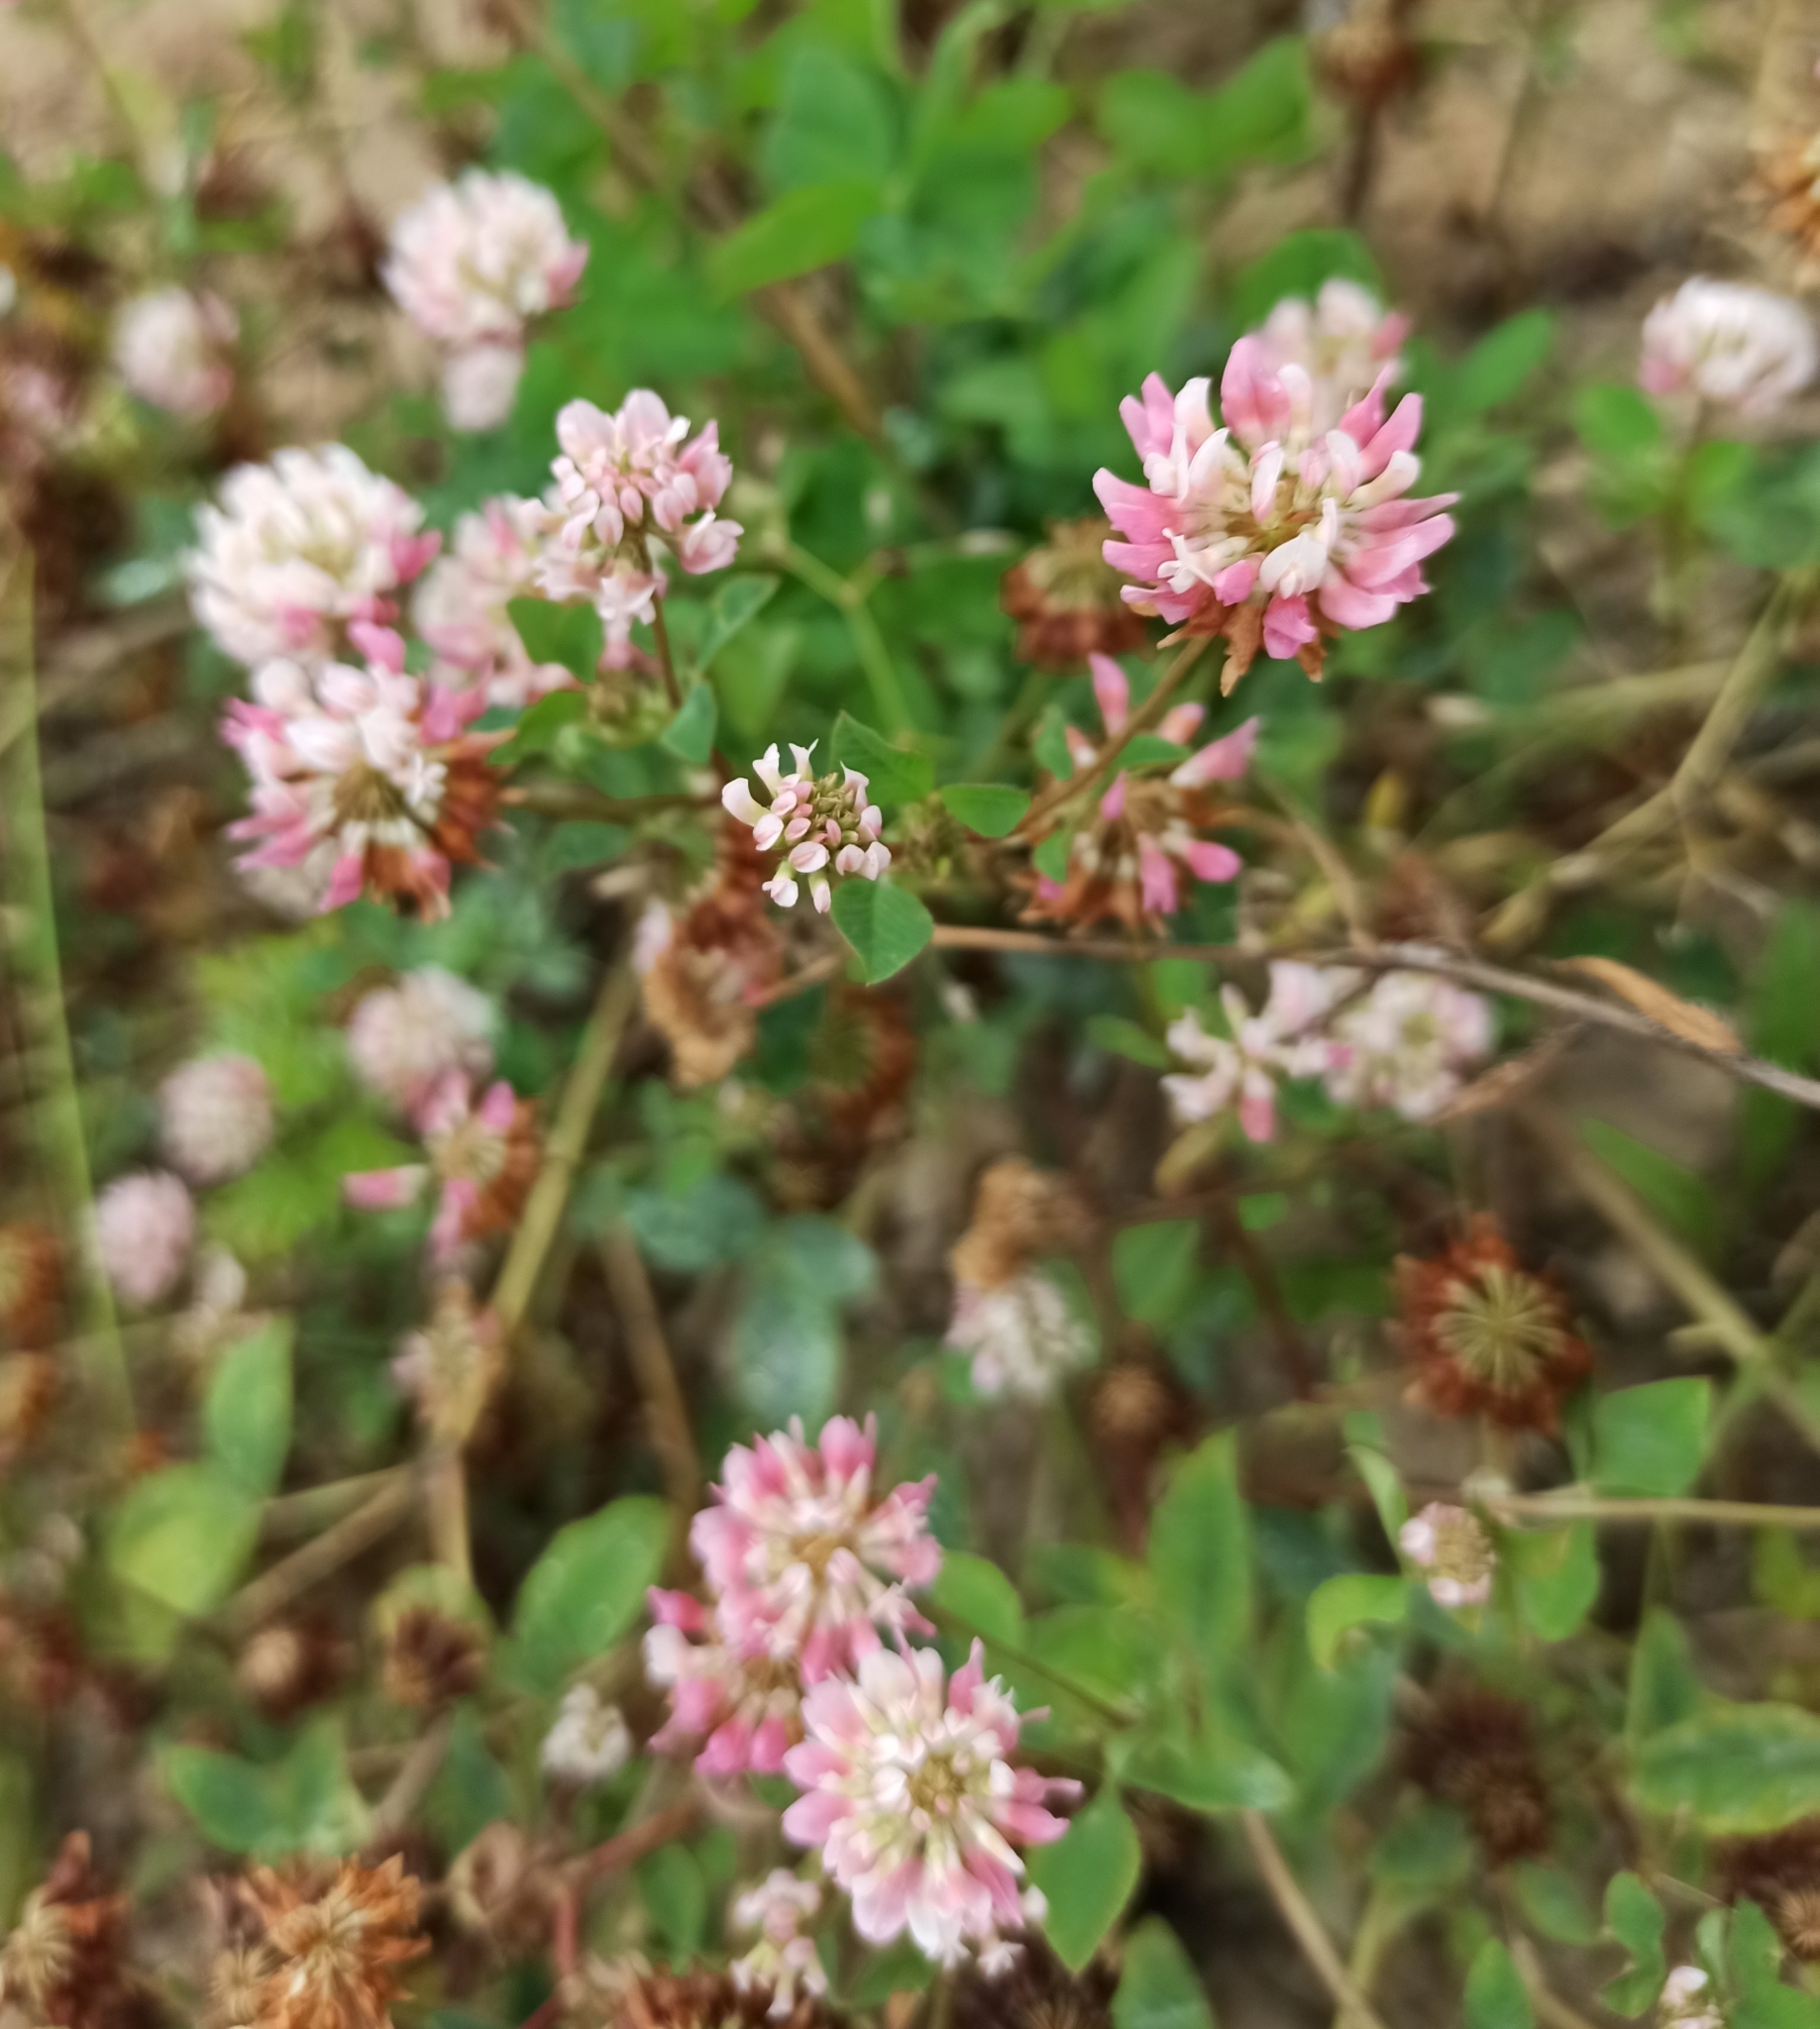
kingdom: Plantae
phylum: Tracheophyta
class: Magnoliopsida
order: Fabales
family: Fabaceae
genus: Trifolium
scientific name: Trifolium hybridum
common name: Alsike clover
